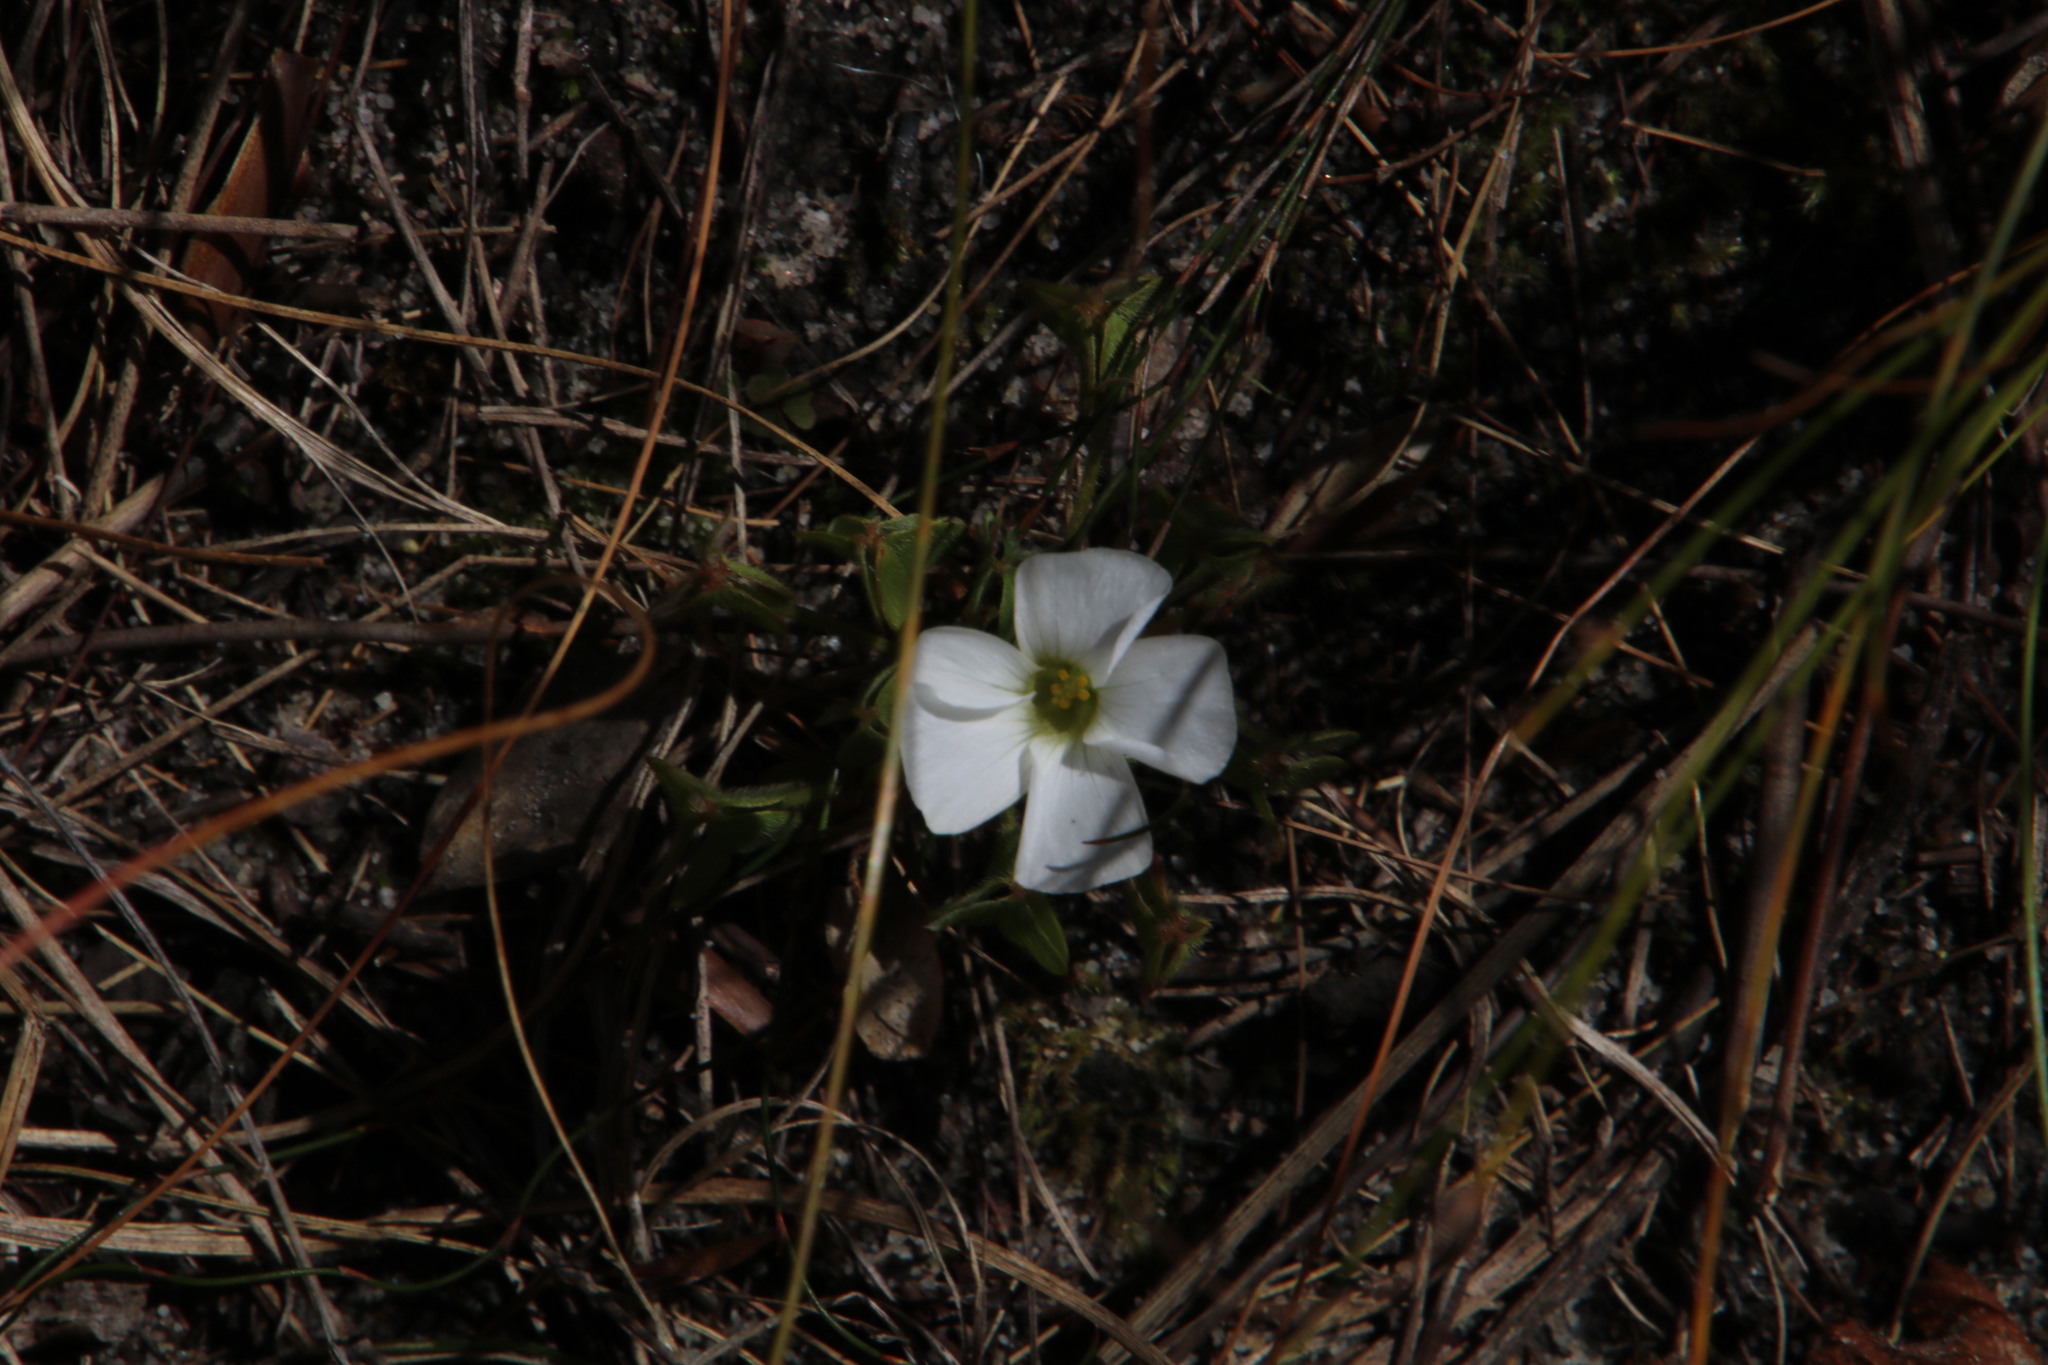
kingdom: Plantae
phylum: Tracheophyta
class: Magnoliopsida
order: Oxalidales
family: Oxalidaceae
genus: Oxalis
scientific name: Oxalis lanata
